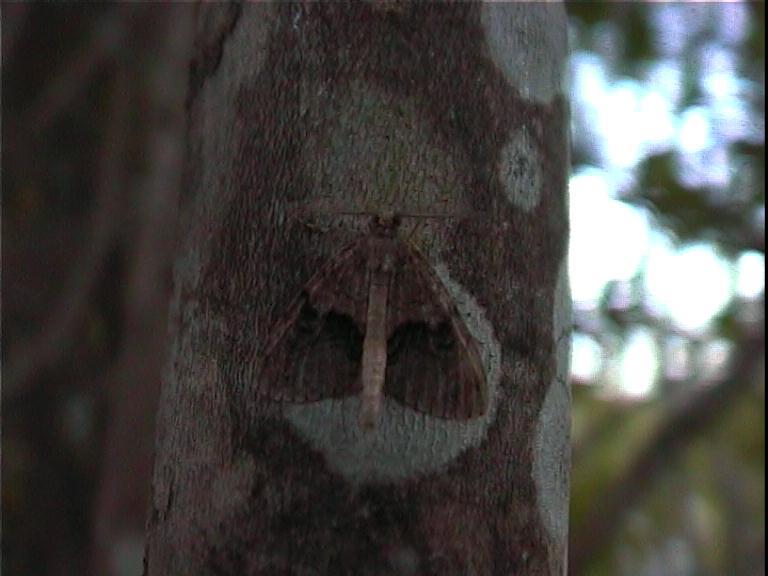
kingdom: Animalia
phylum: Arthropoda
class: Insecta
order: Lepidoptera
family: Geometridae
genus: Pseudocoremia
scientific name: Pseudocoremia suavis
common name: Common forest looper
